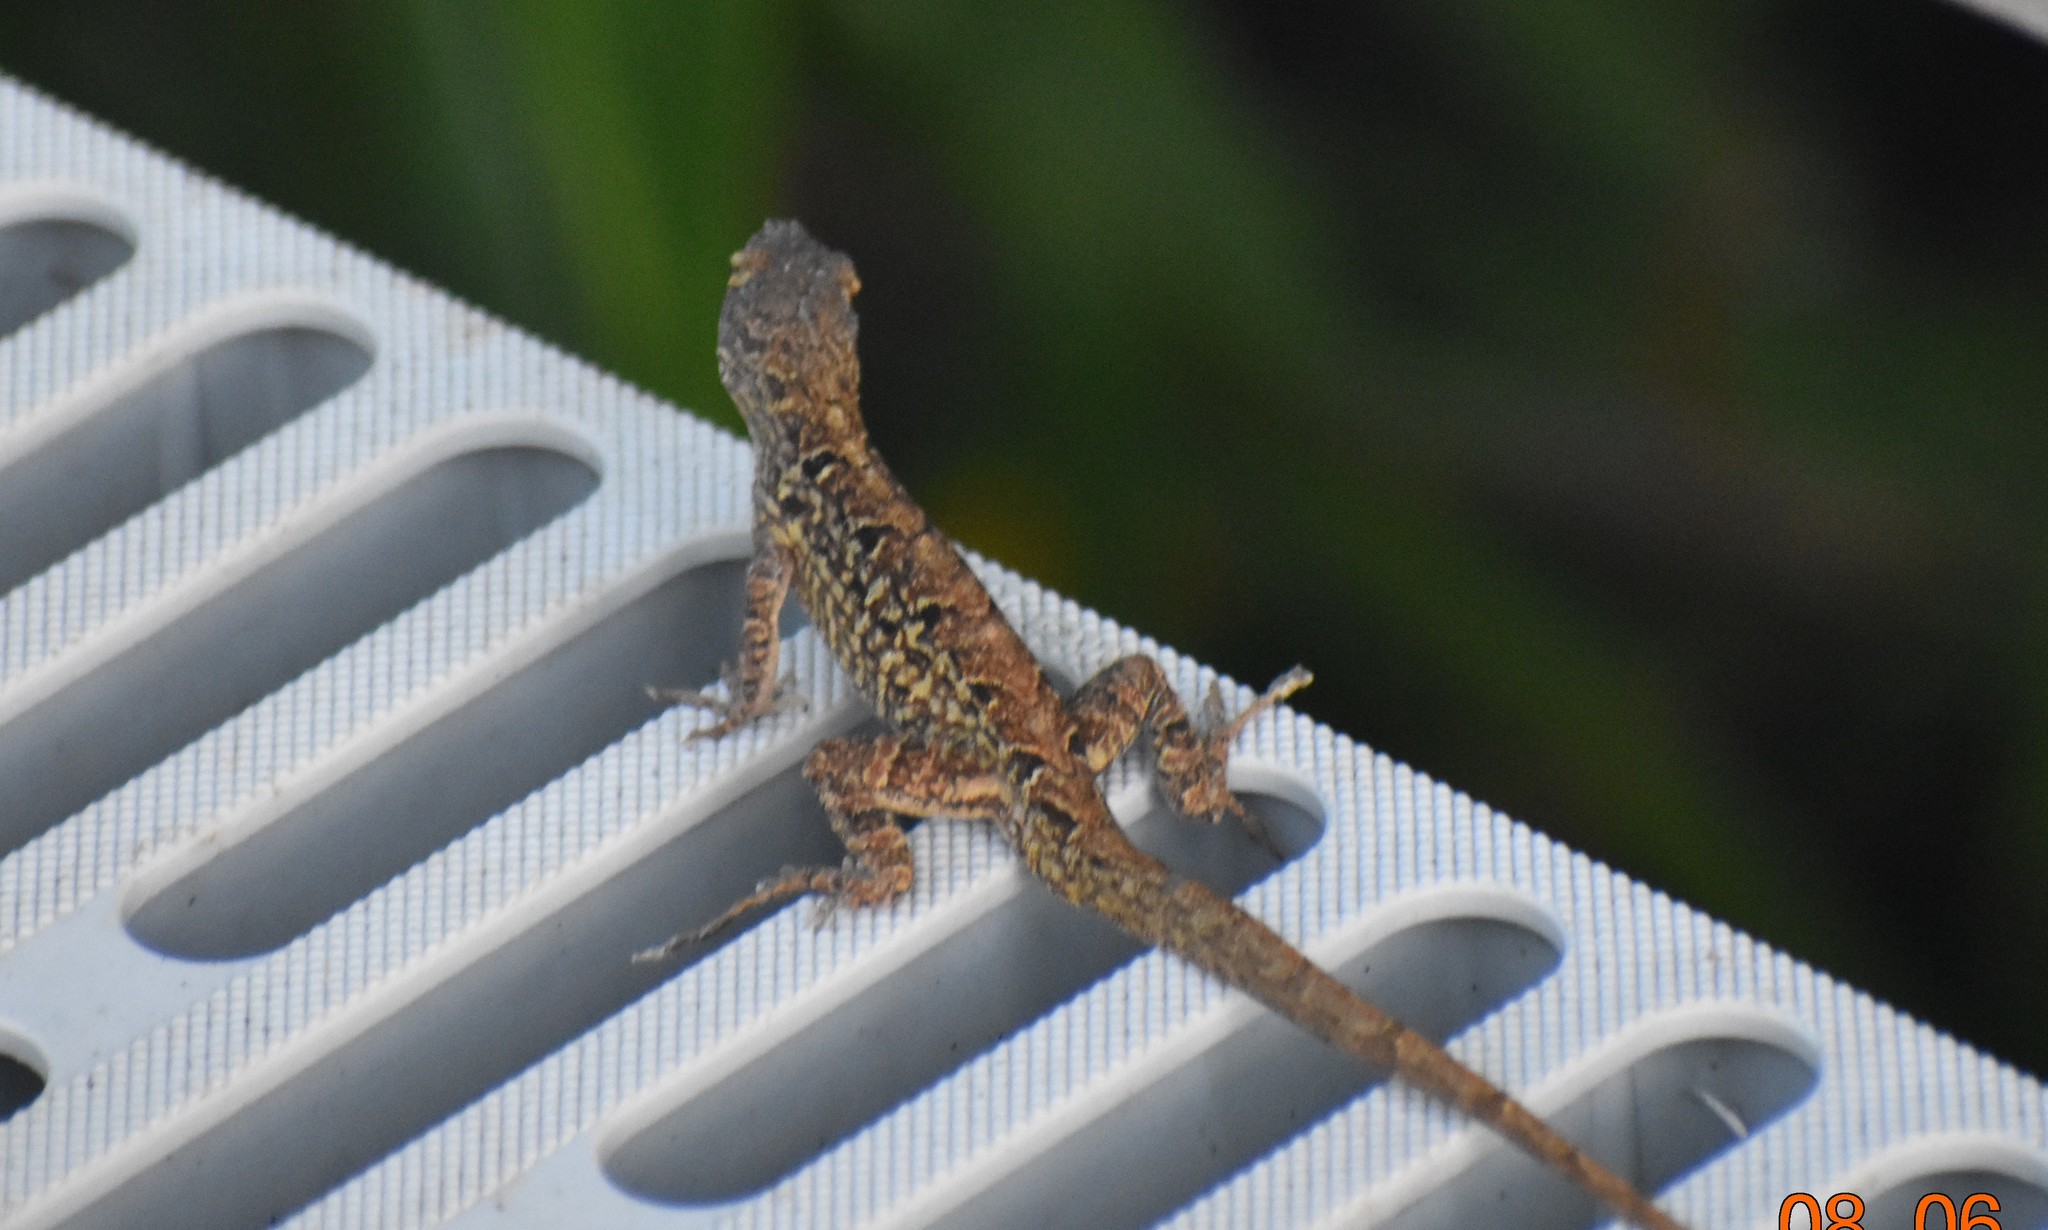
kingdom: Animalia
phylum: Chordata
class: Squamata
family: Dactyloidae
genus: Anolis
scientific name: Anolis sagrei
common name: Brown anole
